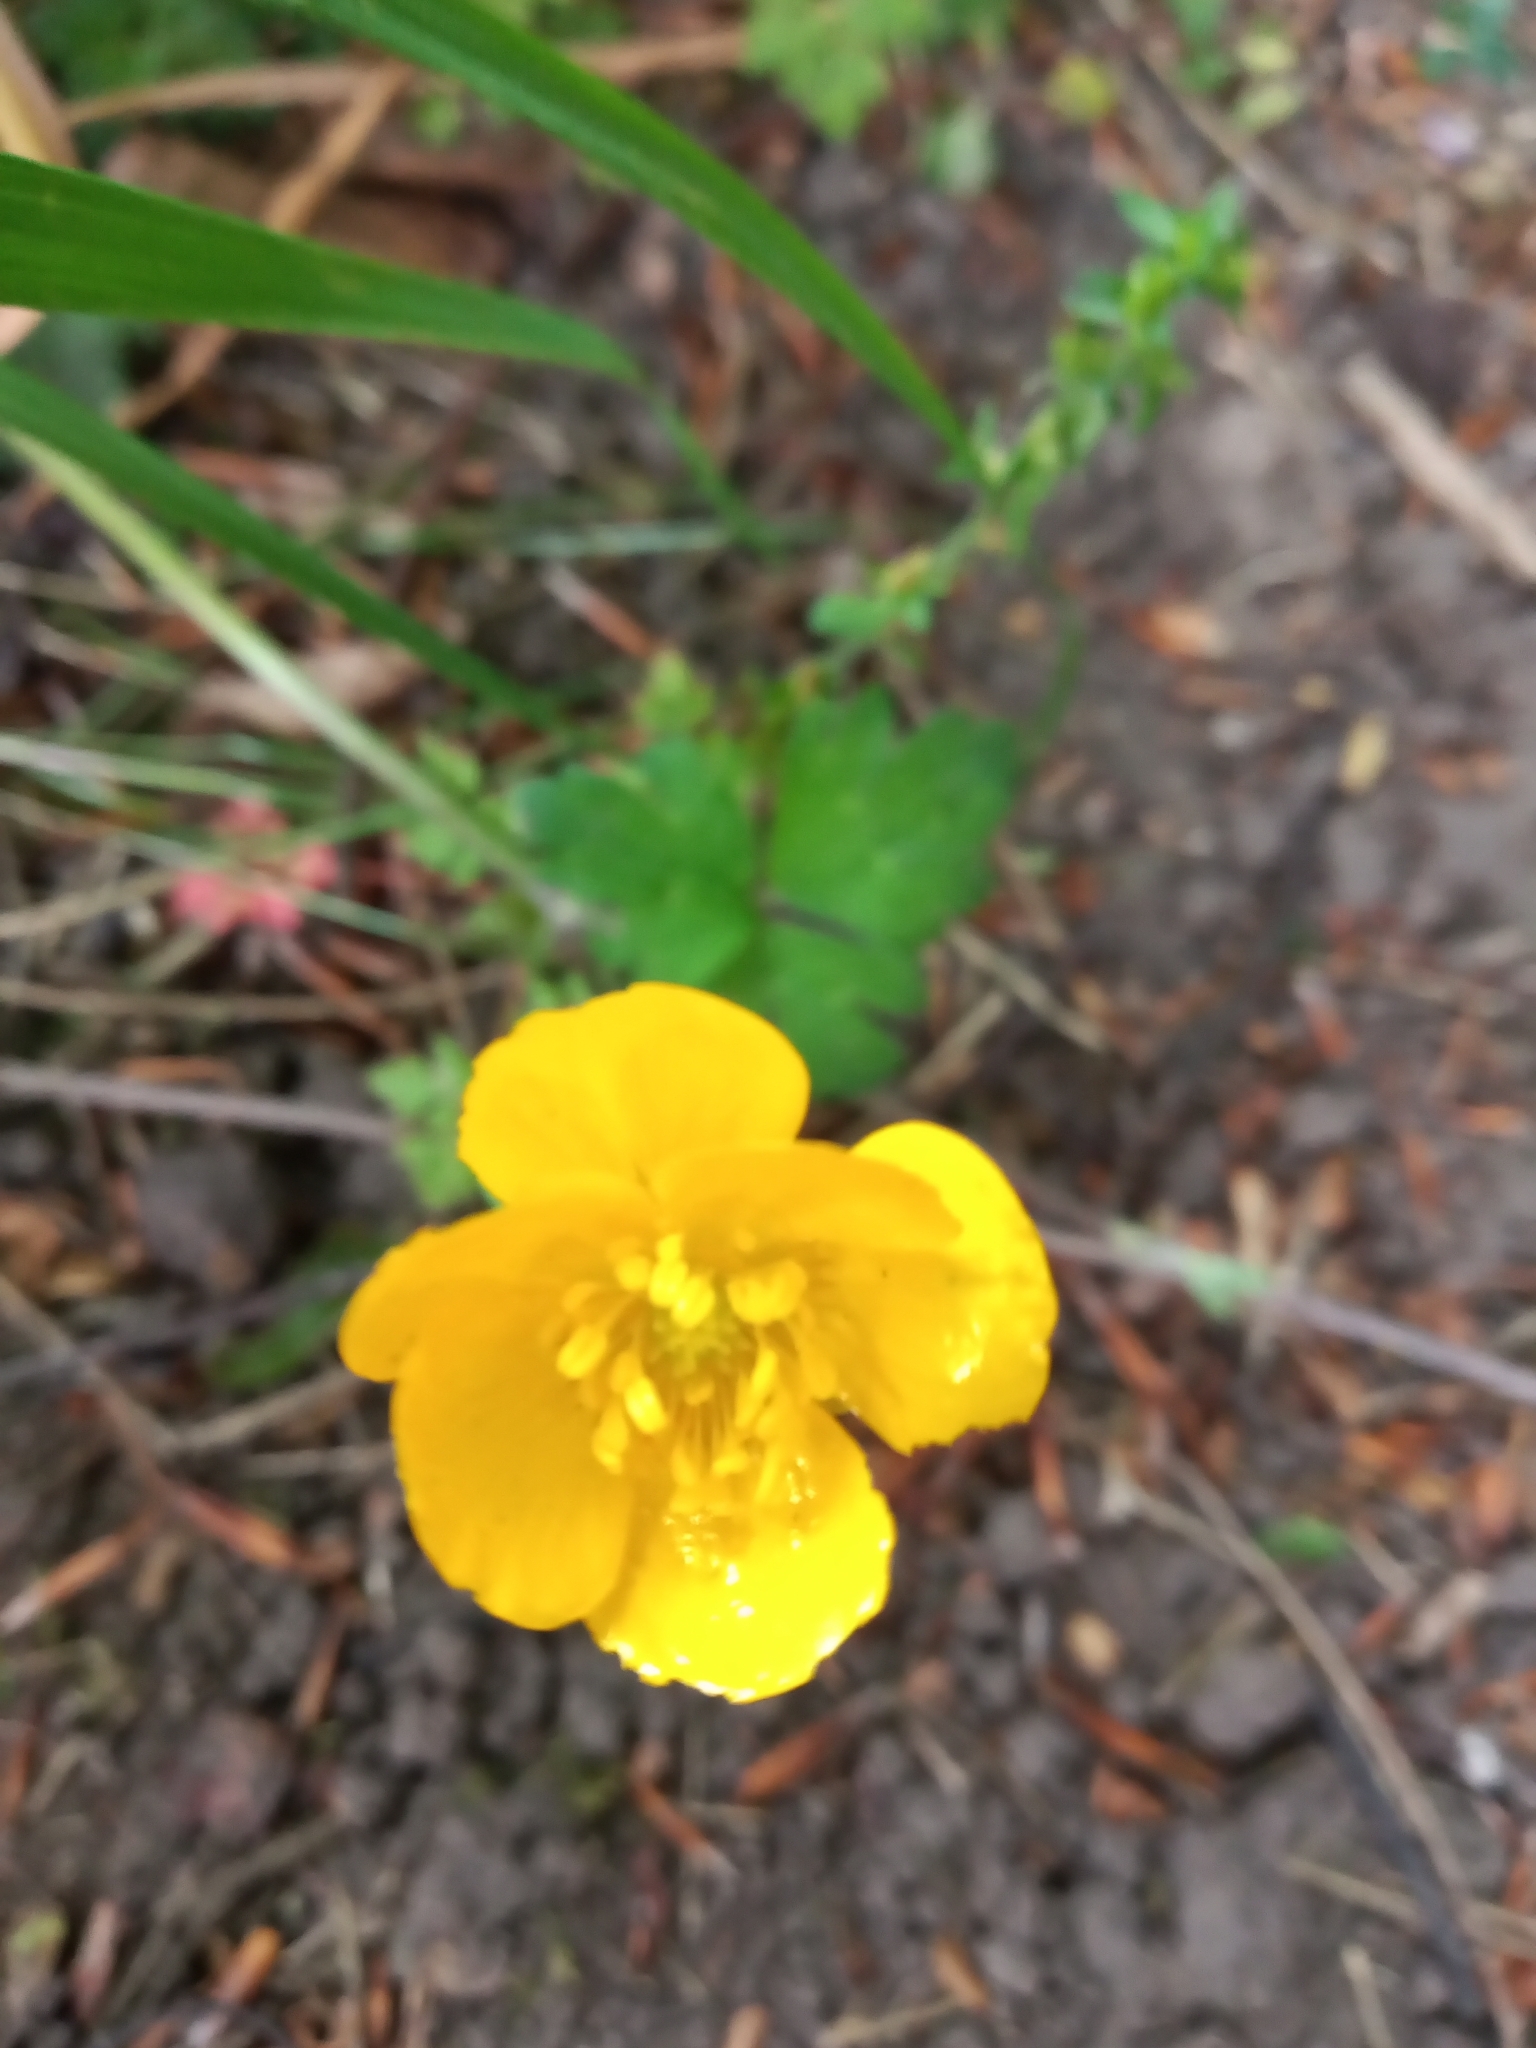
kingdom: Plantae
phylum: Tracheophyta
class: Magnoliopsida
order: Ranunculales
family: Ranunculaceae
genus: Ranunculus
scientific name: Ranunculus repens
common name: Creeping buttercup
